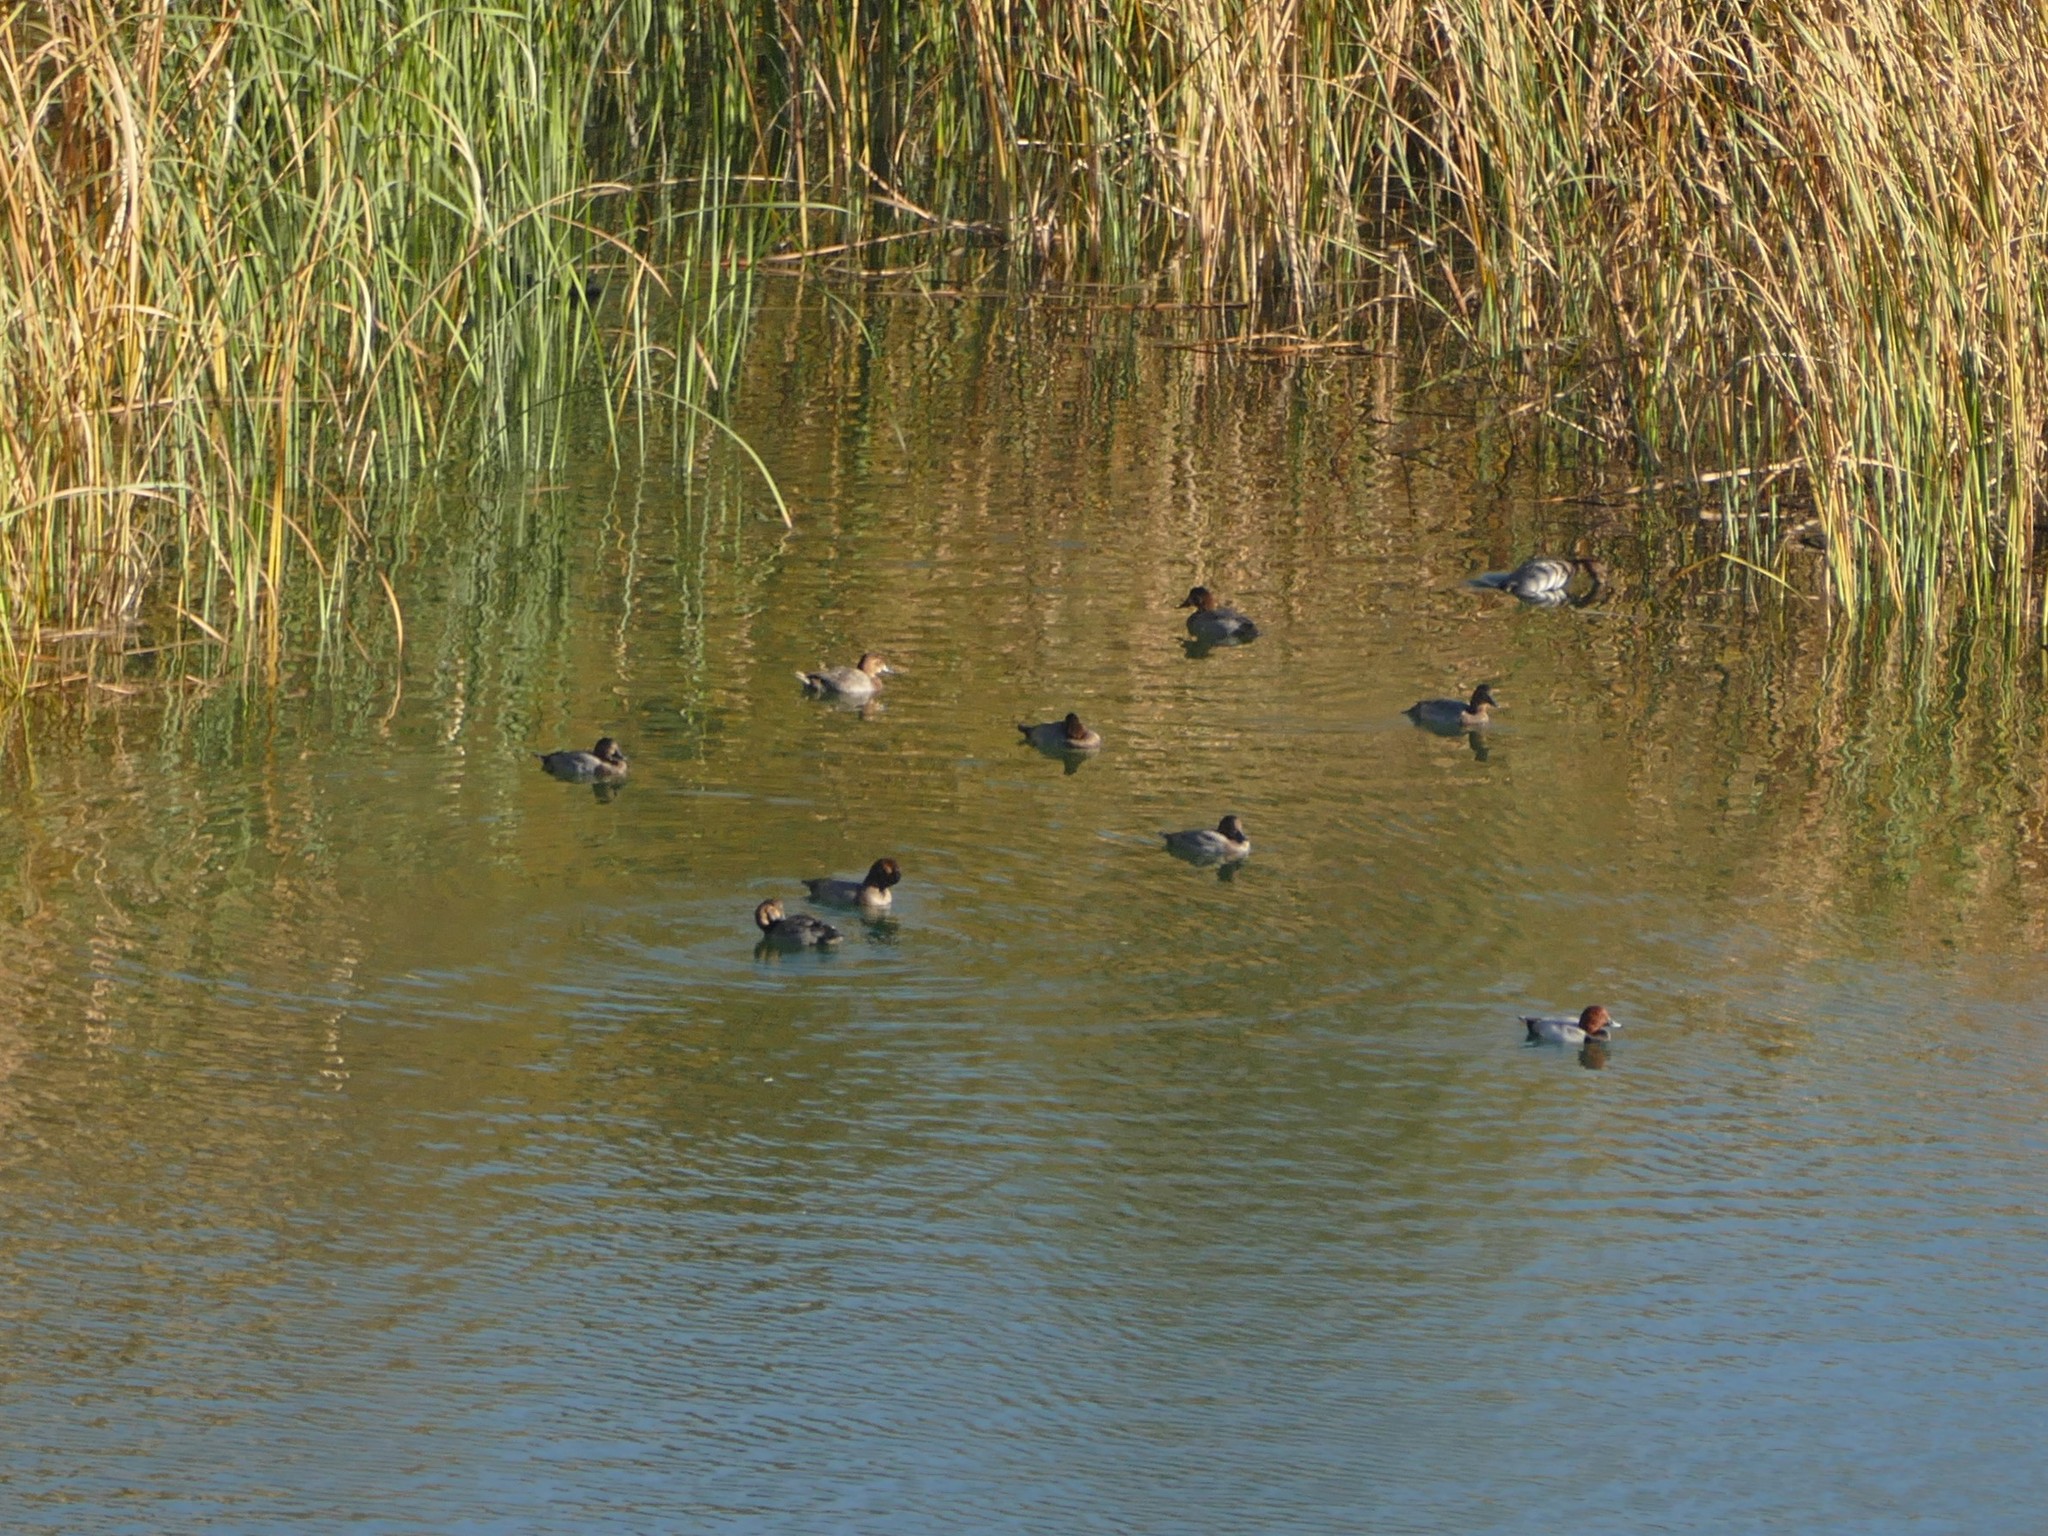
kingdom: Animalia
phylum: Chordata
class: Aves
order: Anseriformes
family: Anatidae
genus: Aythya
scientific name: Aythya ferina
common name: Common pochard
